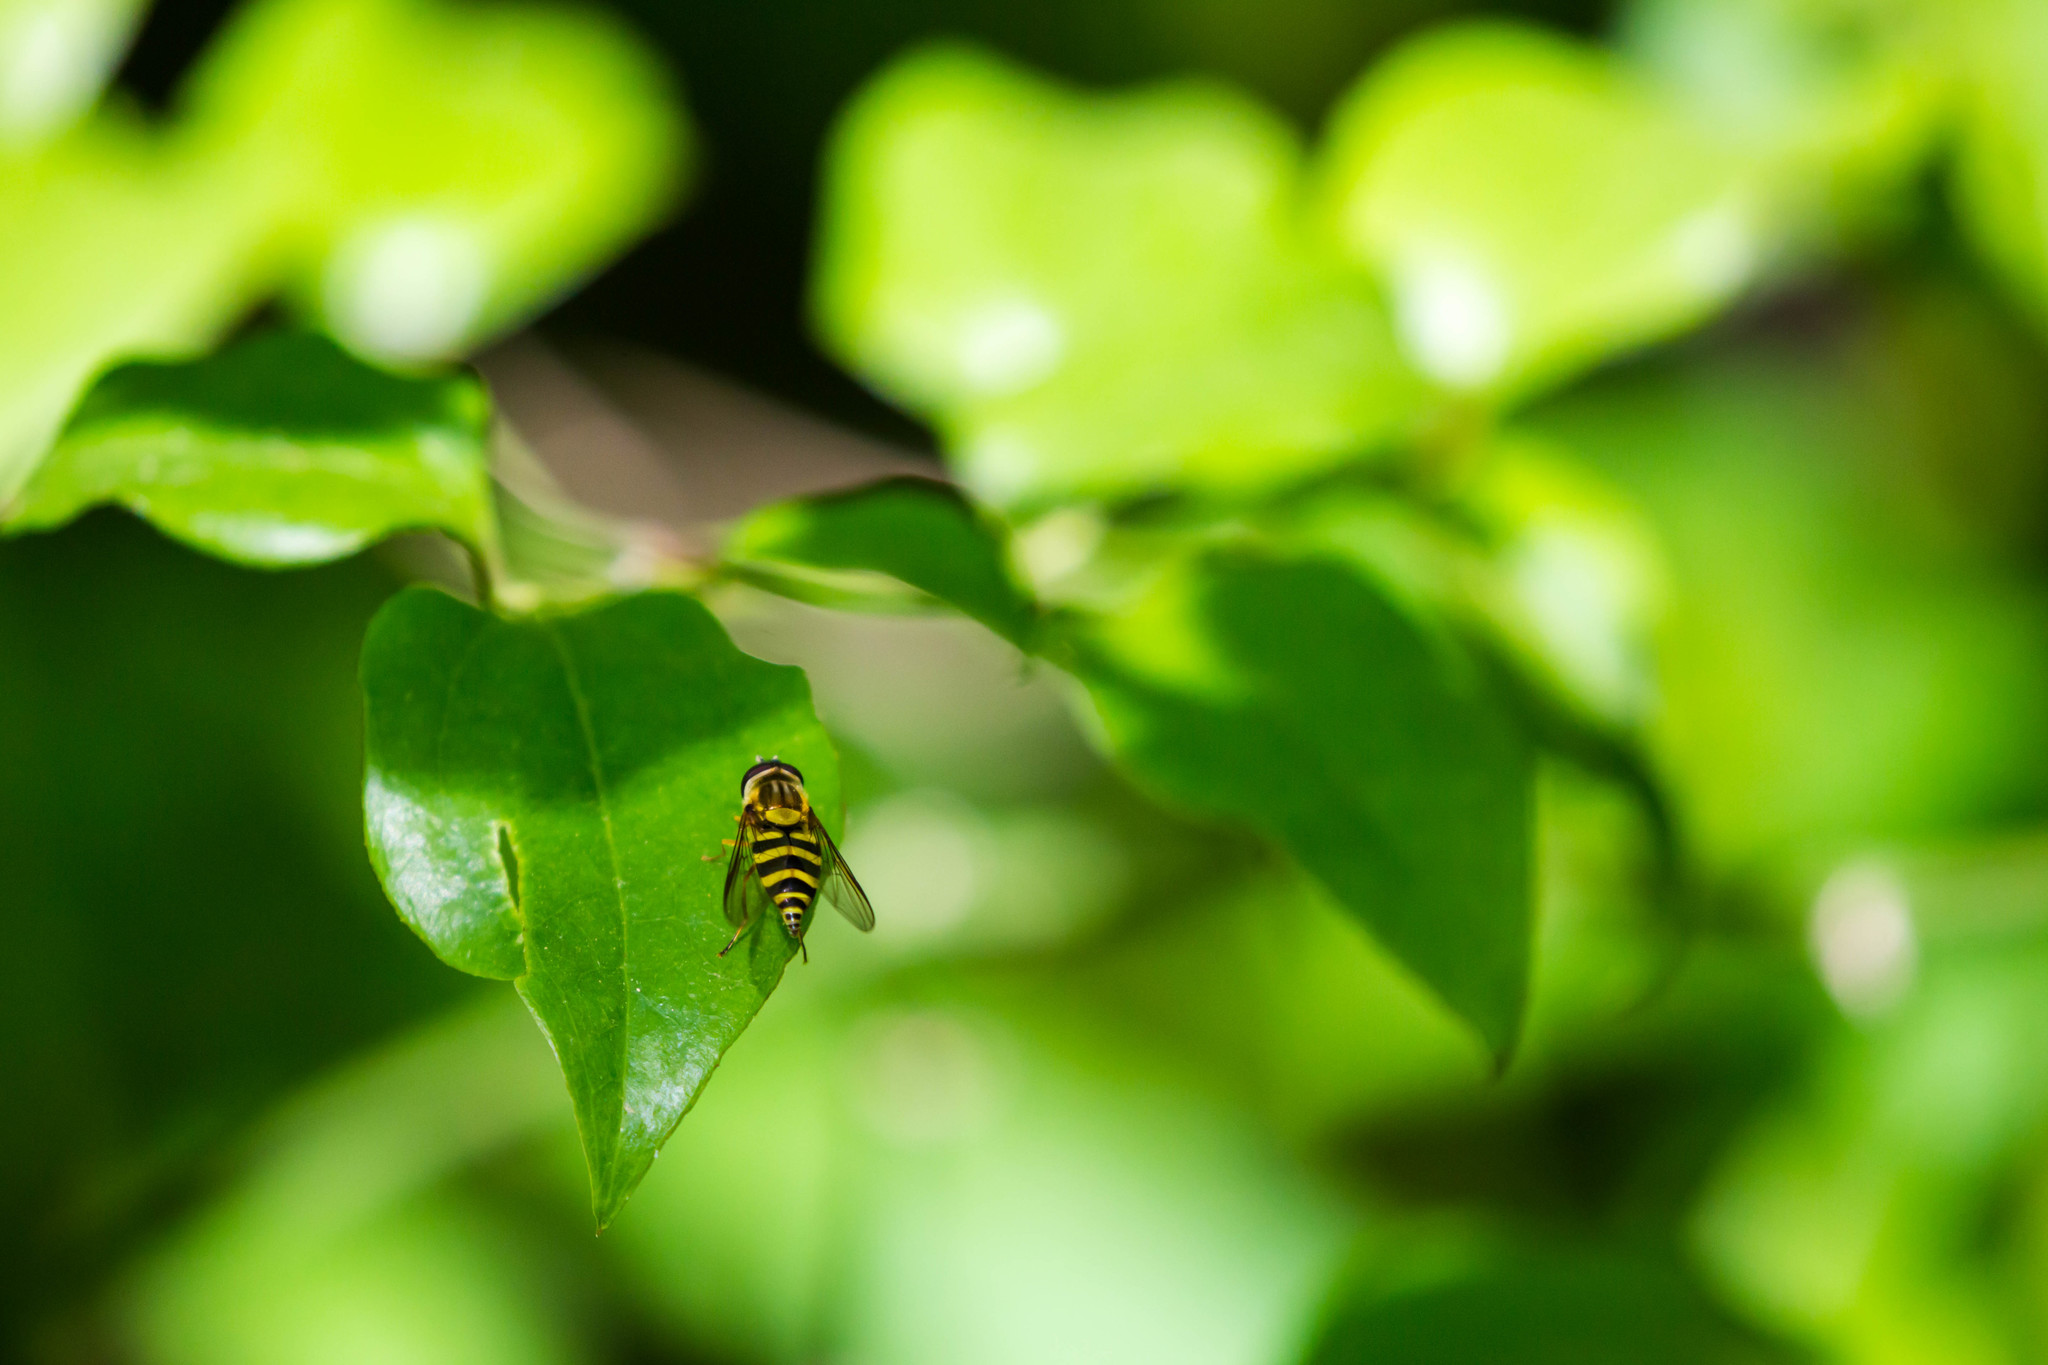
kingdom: Animalia
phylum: Arthropoda
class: Insecta
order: Diptera
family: Syrphidae
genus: Syrphus
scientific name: Syrphus knabi
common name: Eastern flower fly
